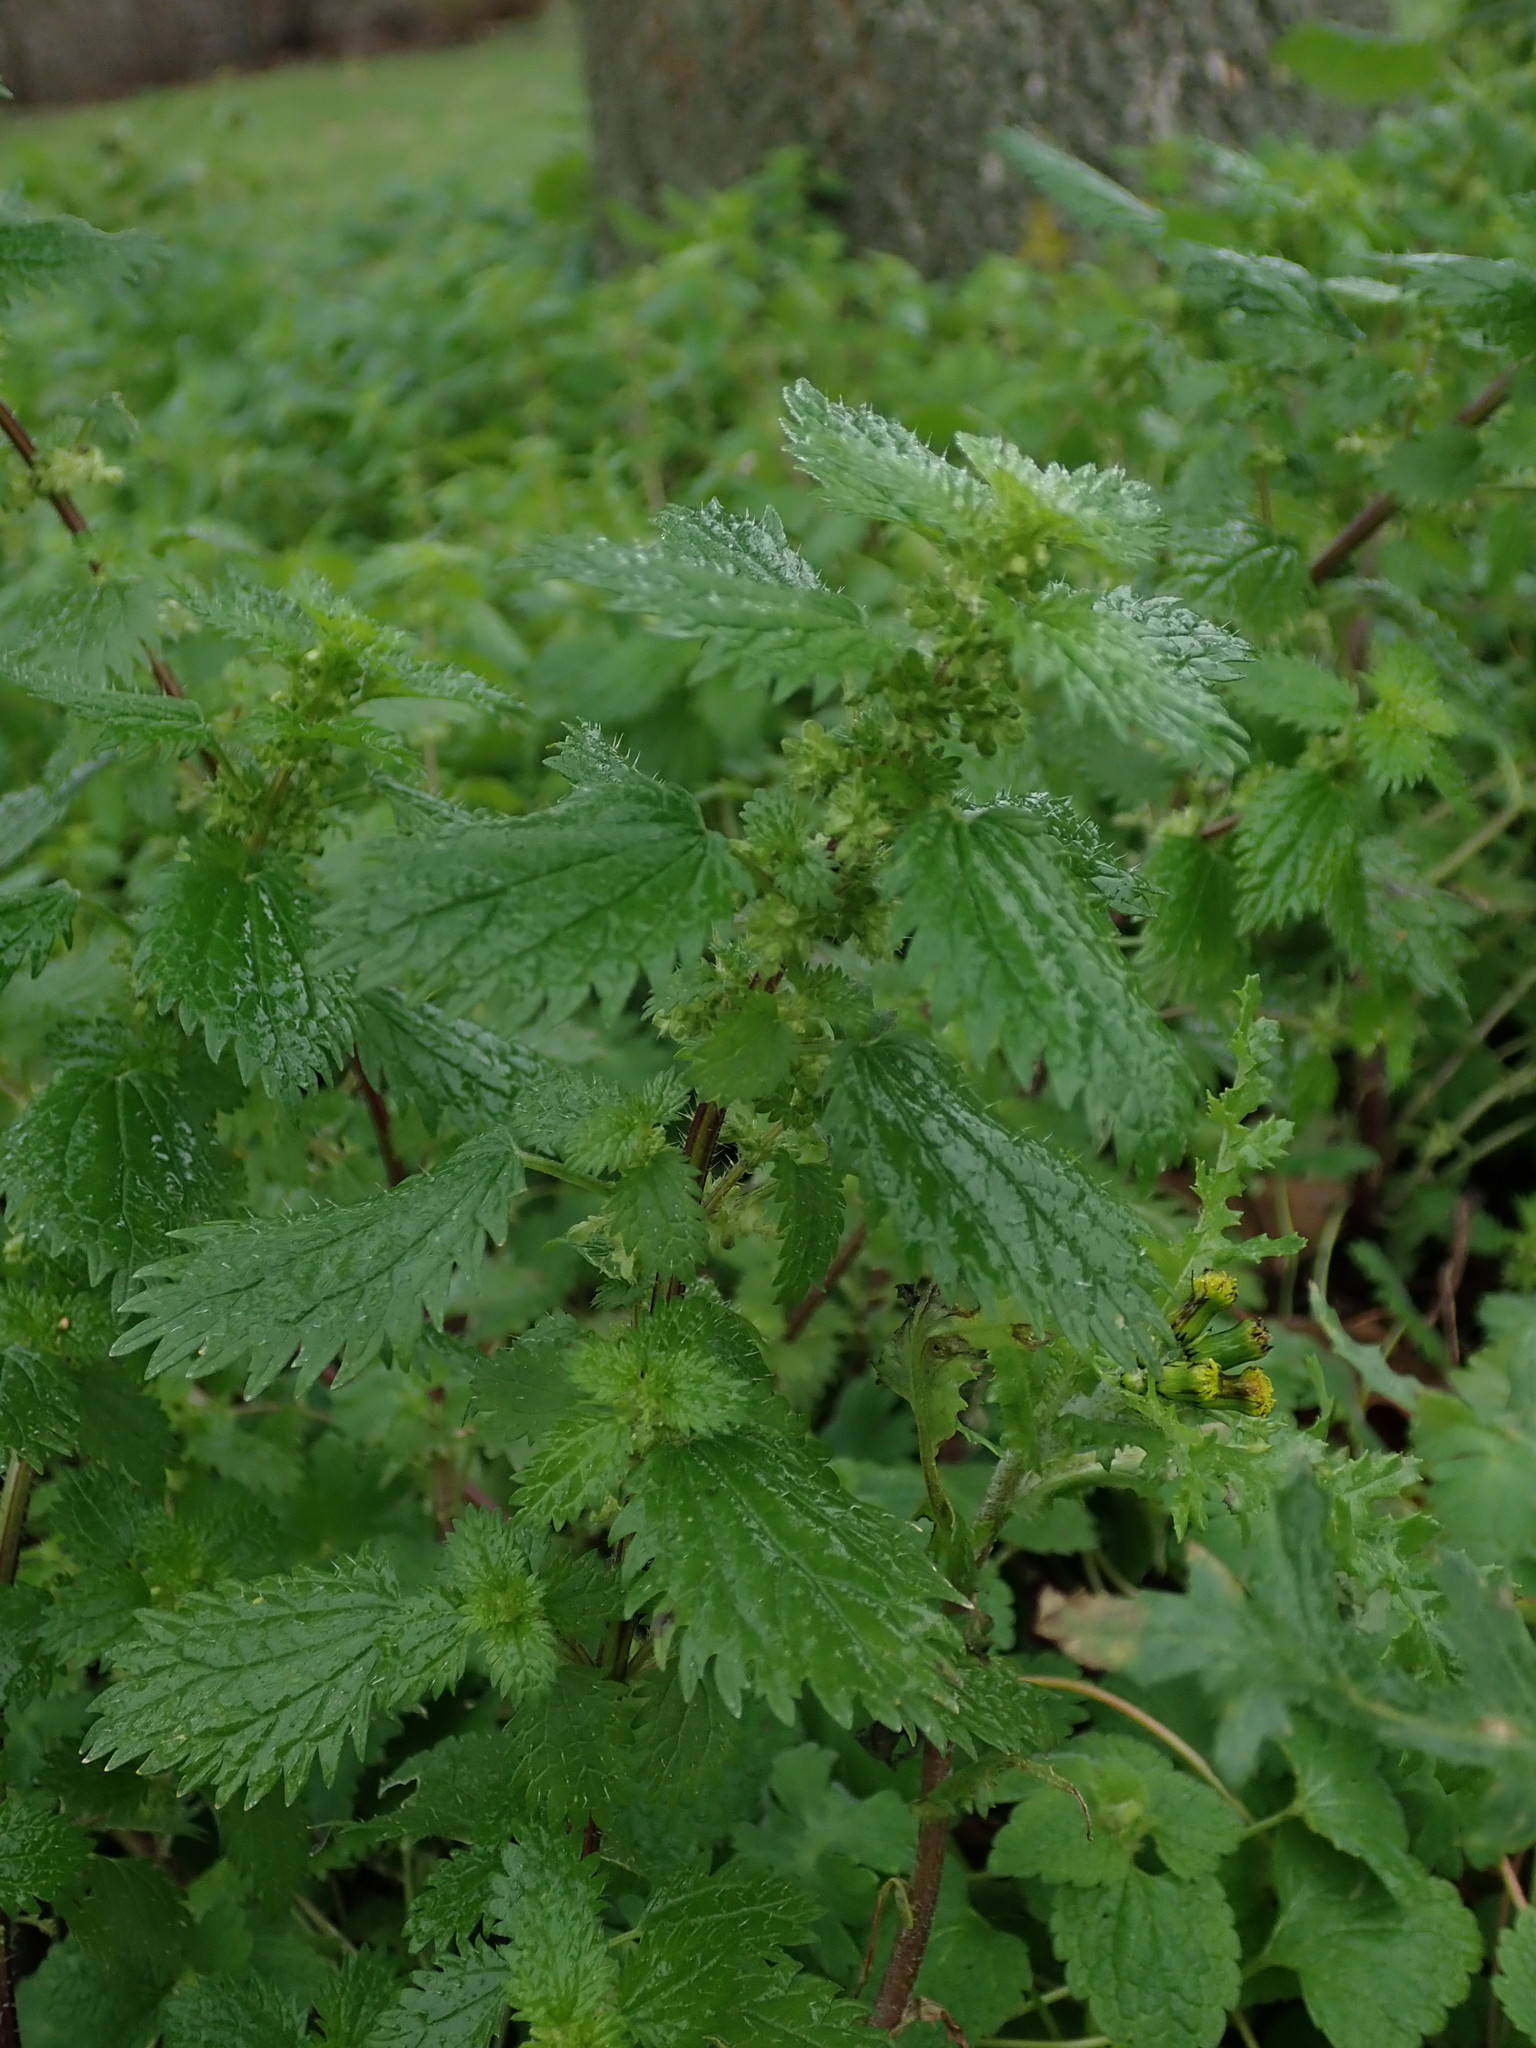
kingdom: Plantae
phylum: Tracheophyta
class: Magnoliopsida
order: Rosales
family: Urticaceae
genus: Urtica
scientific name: Urtica urens
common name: Dwarf nettle
